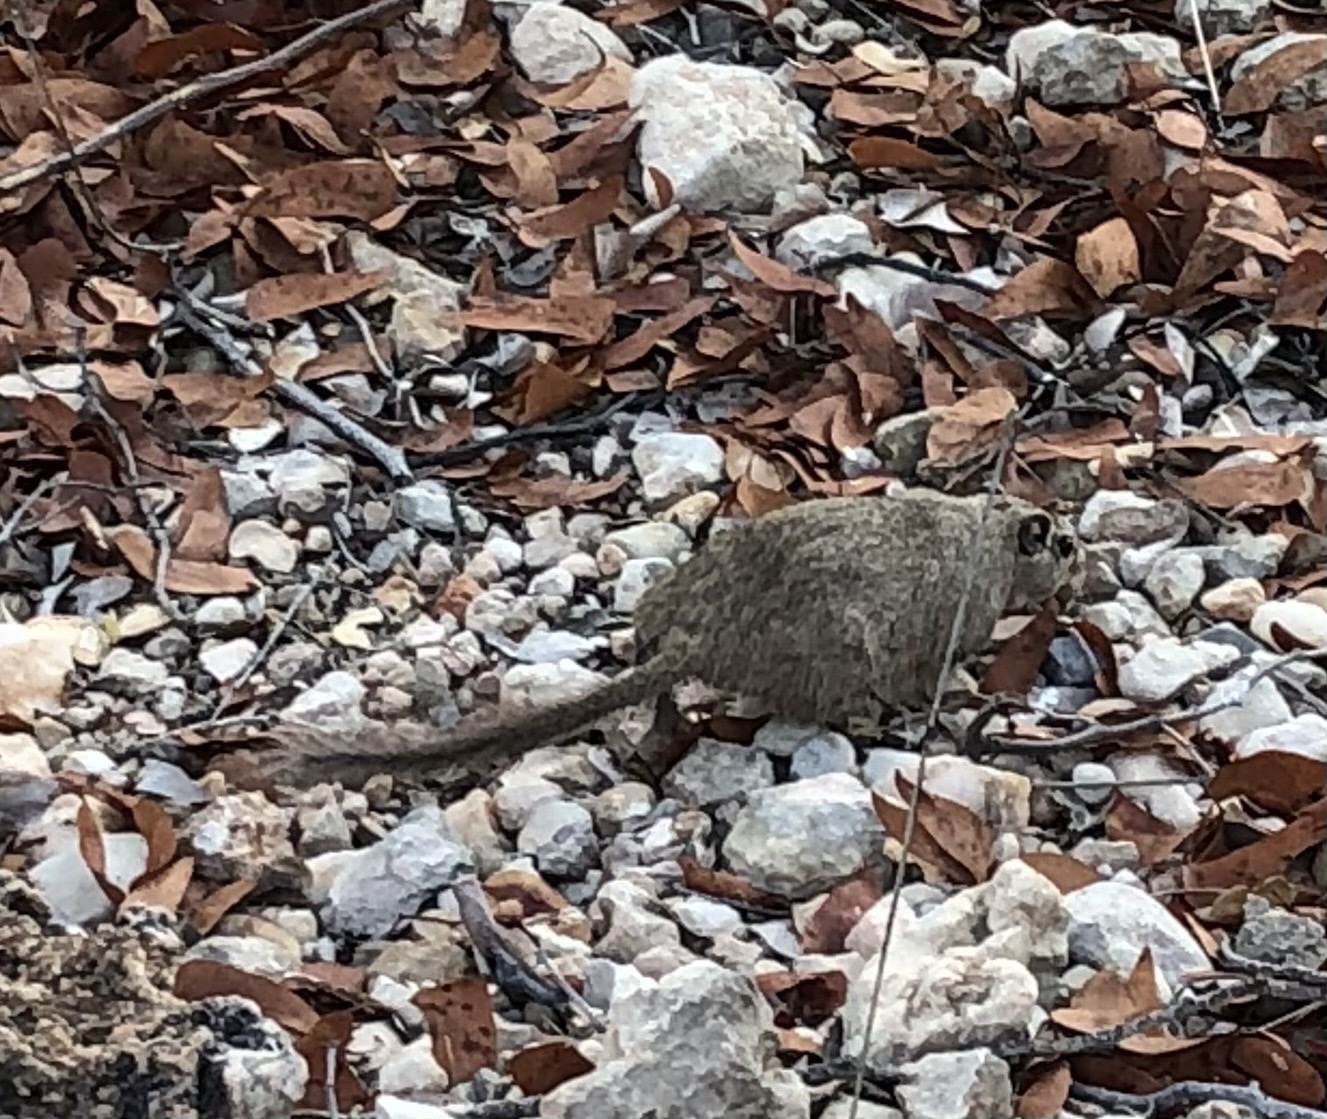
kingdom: Animalia
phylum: Chordata
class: Mammalia
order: Rodentia
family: Petromuridae
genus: Petromus
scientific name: Petromus typicus
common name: Dassie rat
